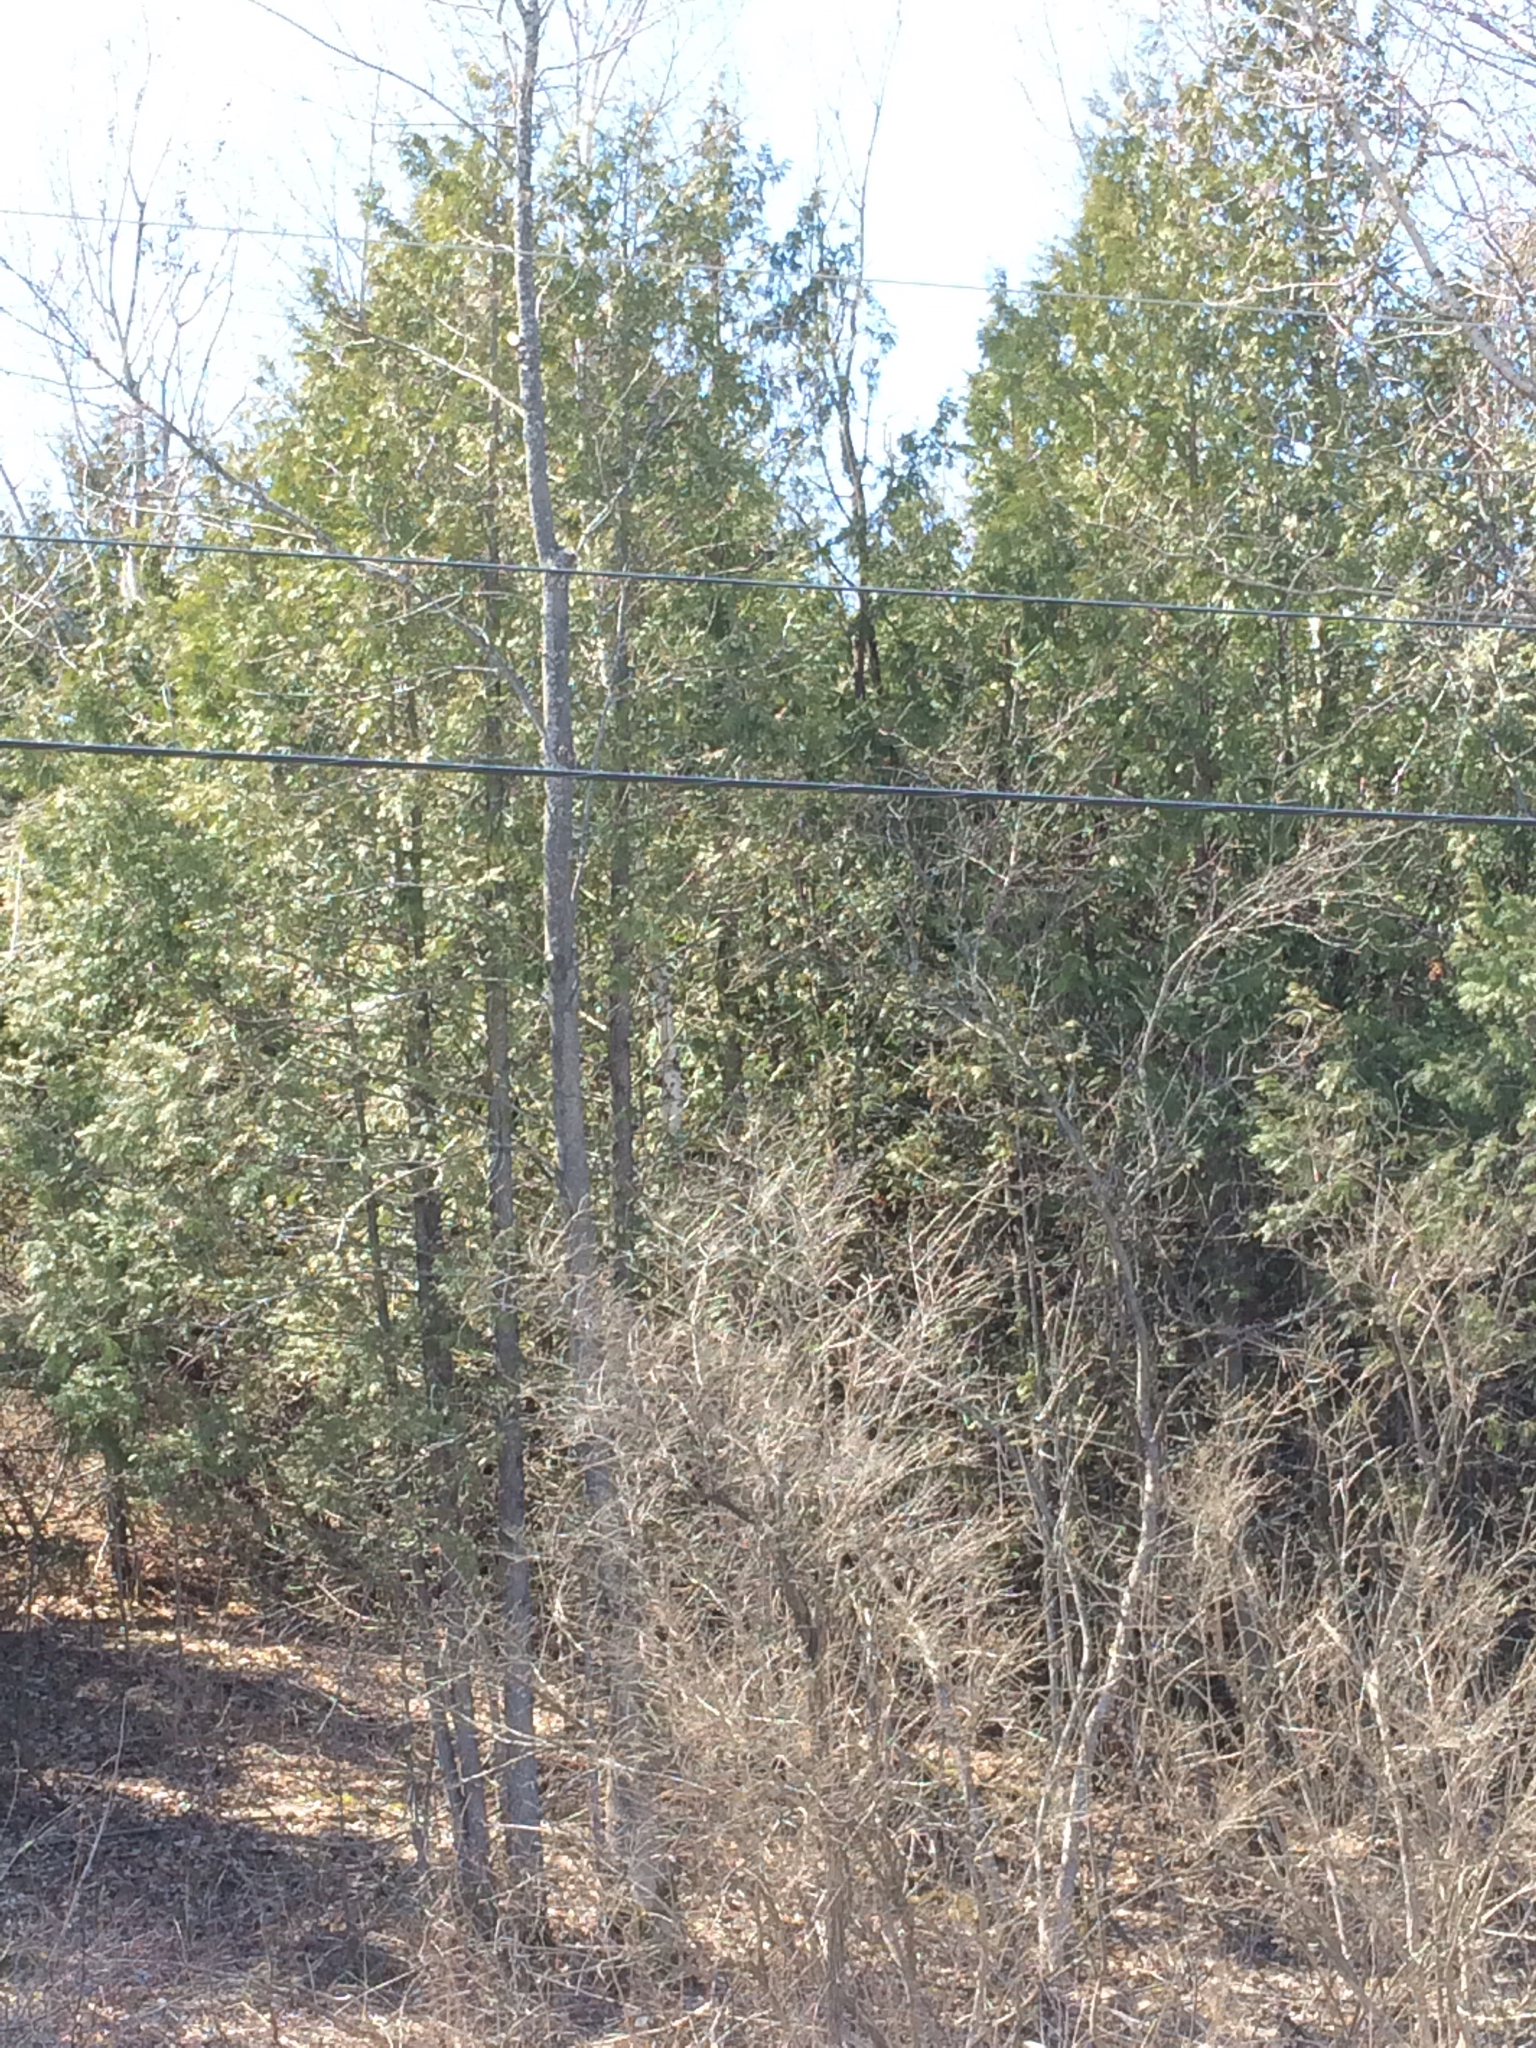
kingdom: Plantae
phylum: Tracheophyta
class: Pinopsida
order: Pinales
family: Cupressaceae
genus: Thuja
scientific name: Thuja occidentalis
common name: Northern white-cedar
